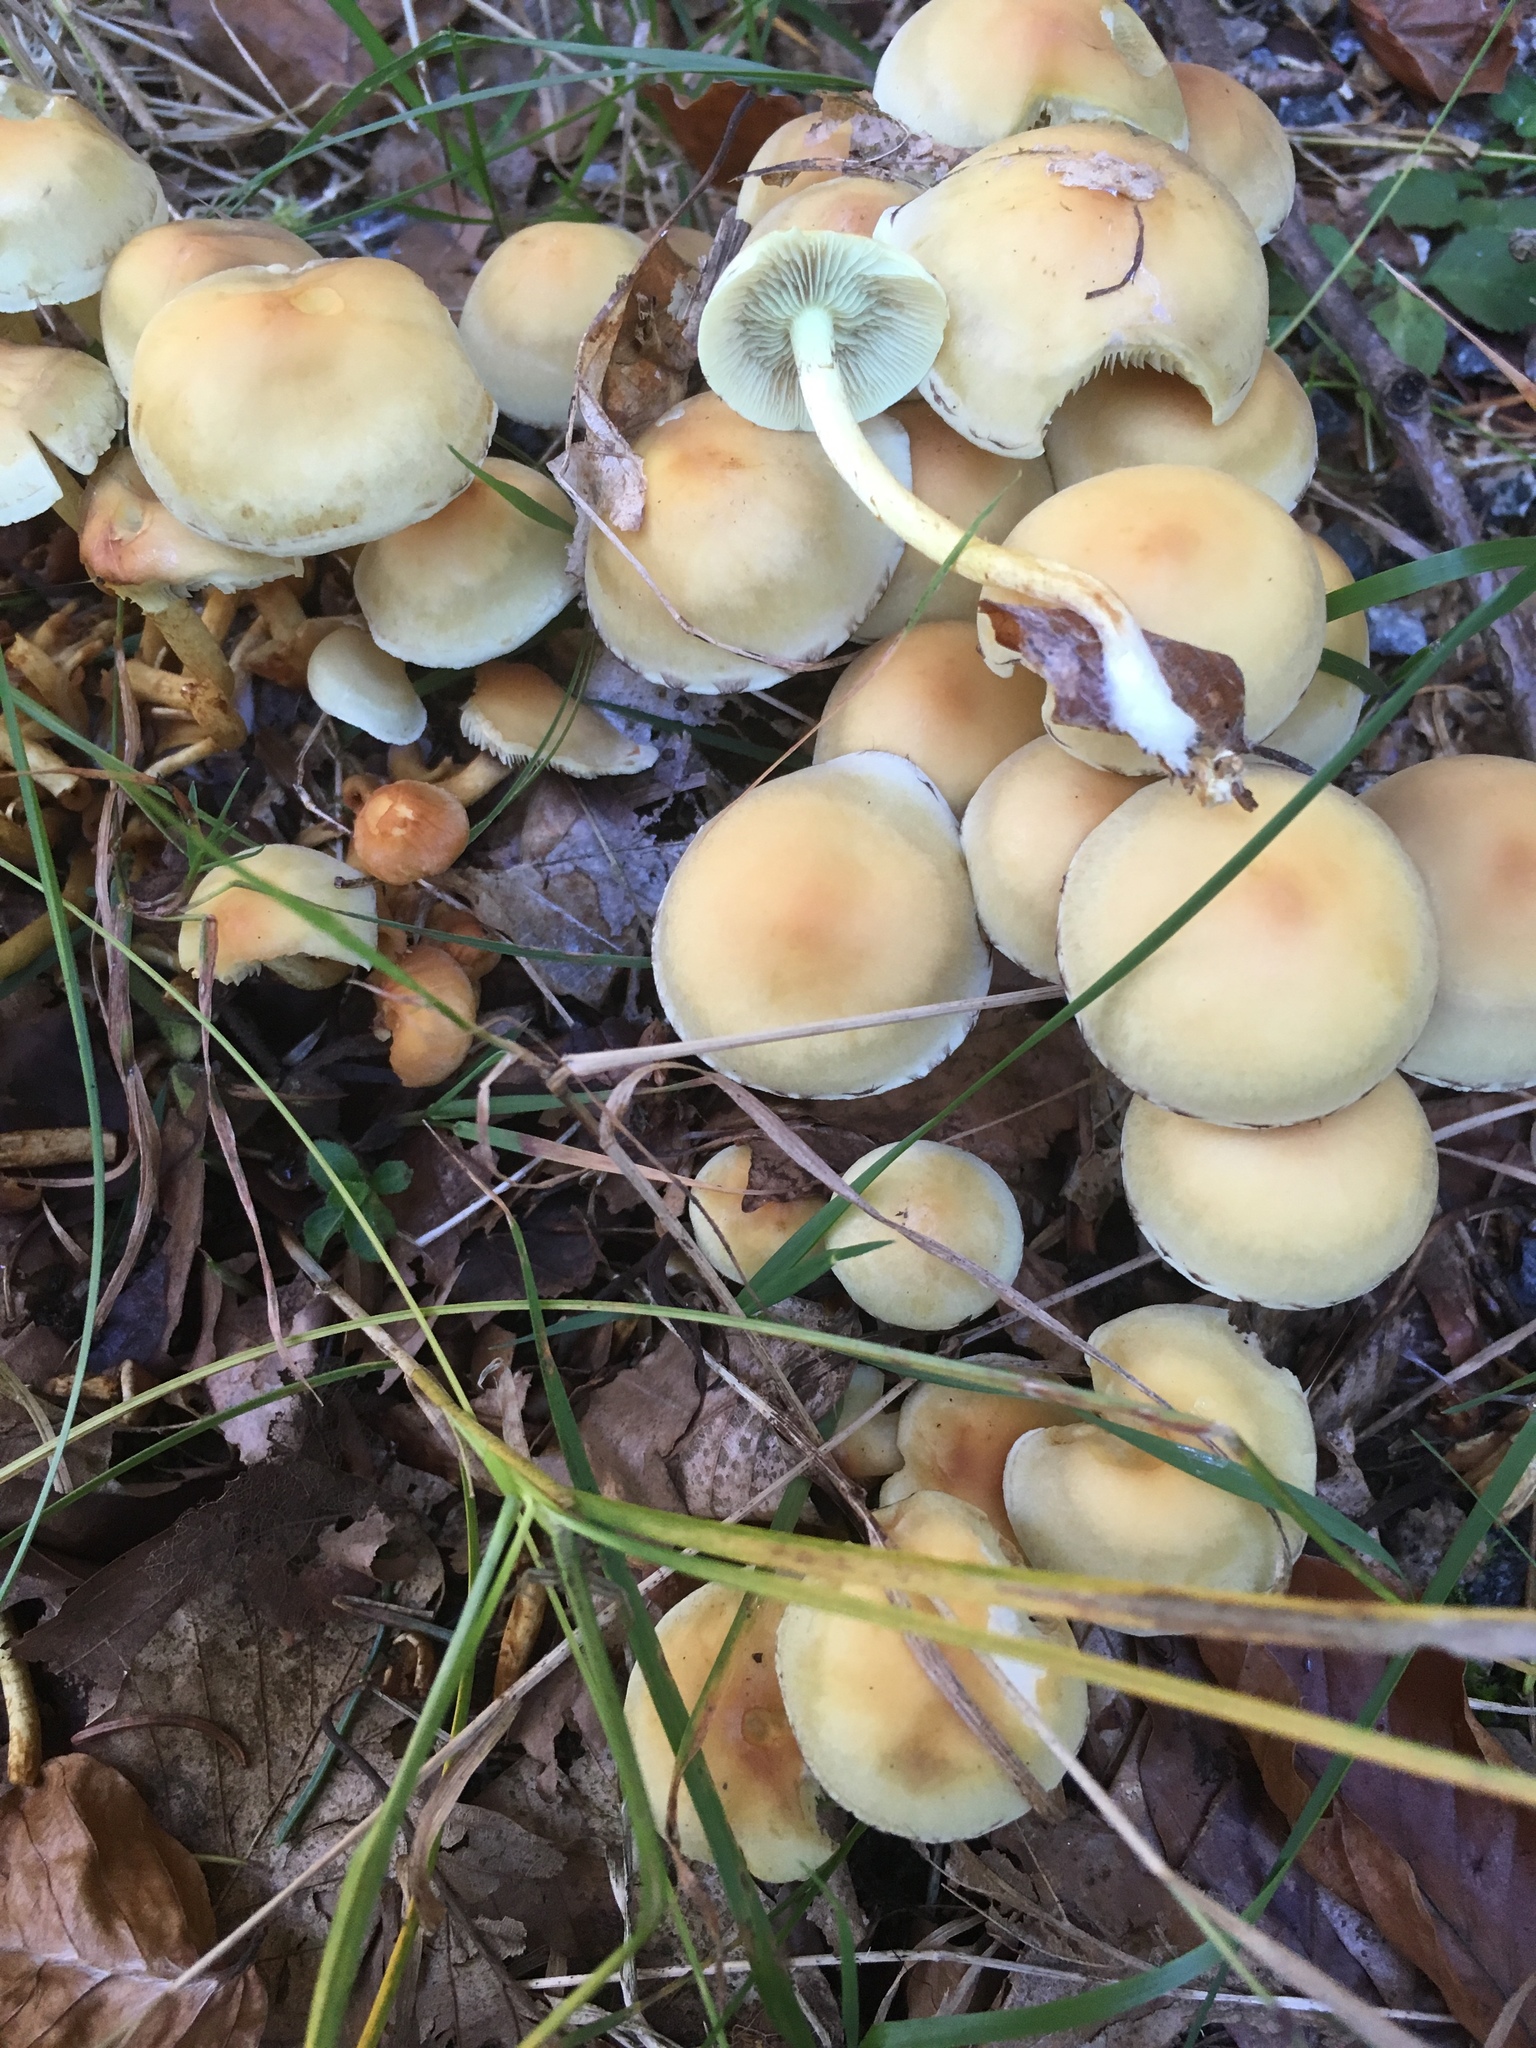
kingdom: Fungi
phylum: Basidiomycota
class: Agaricomycetes
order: Agaricales
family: Strophariaceae
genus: Hypholoma
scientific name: Hypholoma fasciculare
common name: Sulphur tuft
